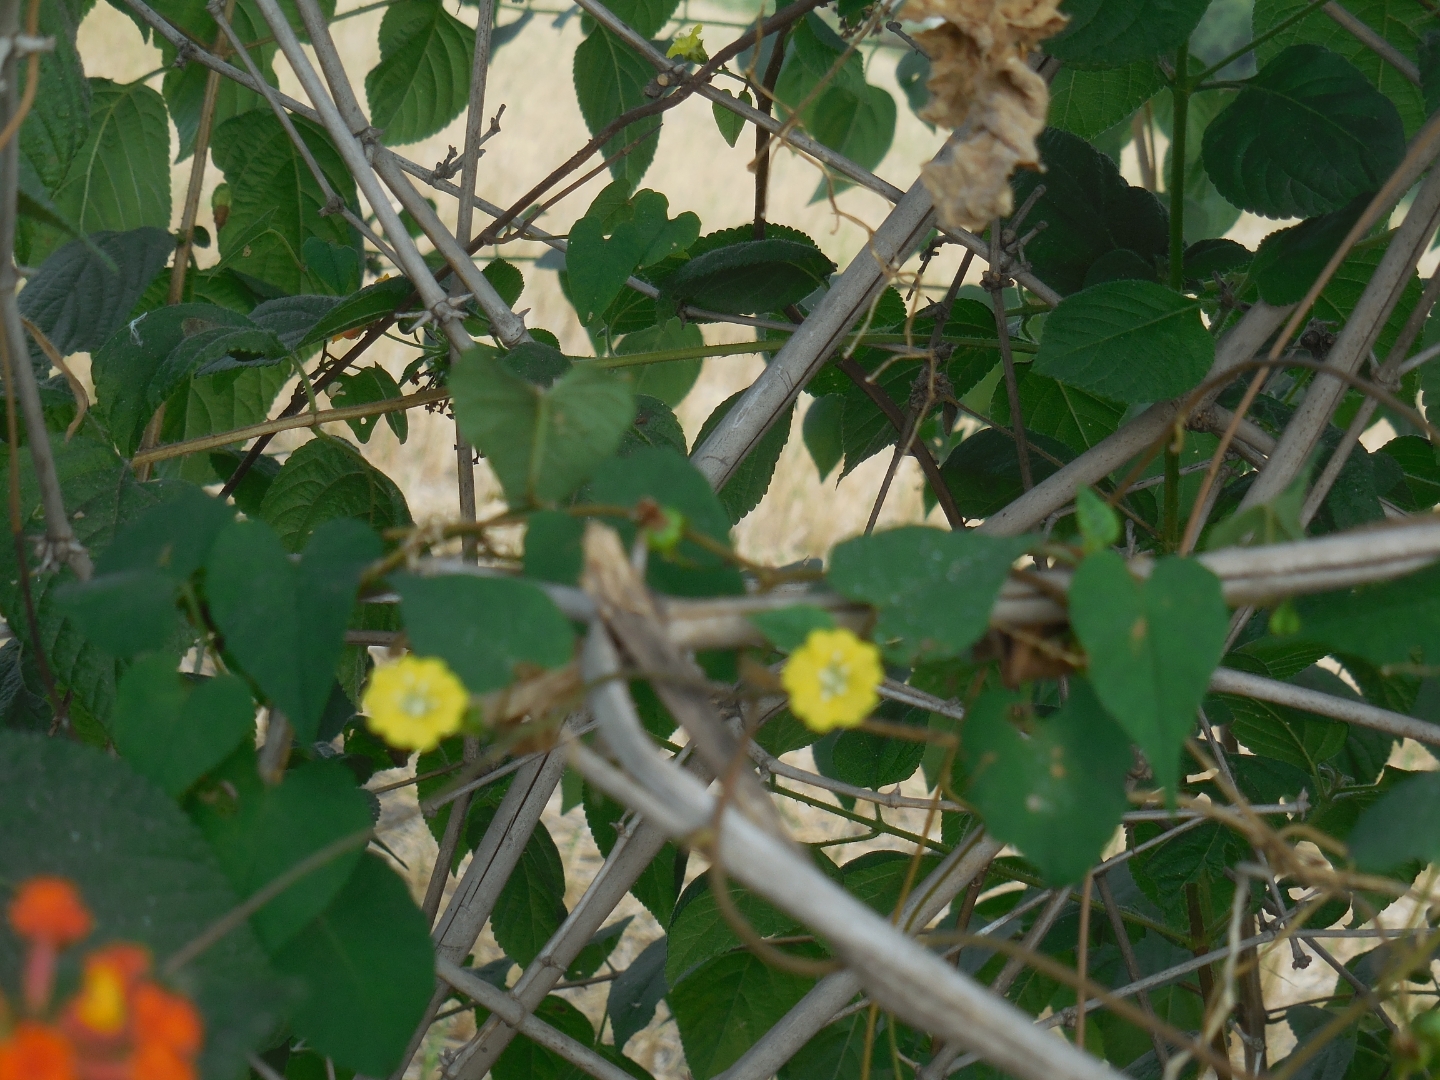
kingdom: Plantae
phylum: Tracheophyta
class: Magnoliopsida
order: Solanales
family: Convolvulaceae
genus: Merremia
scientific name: Merremia hederacea
